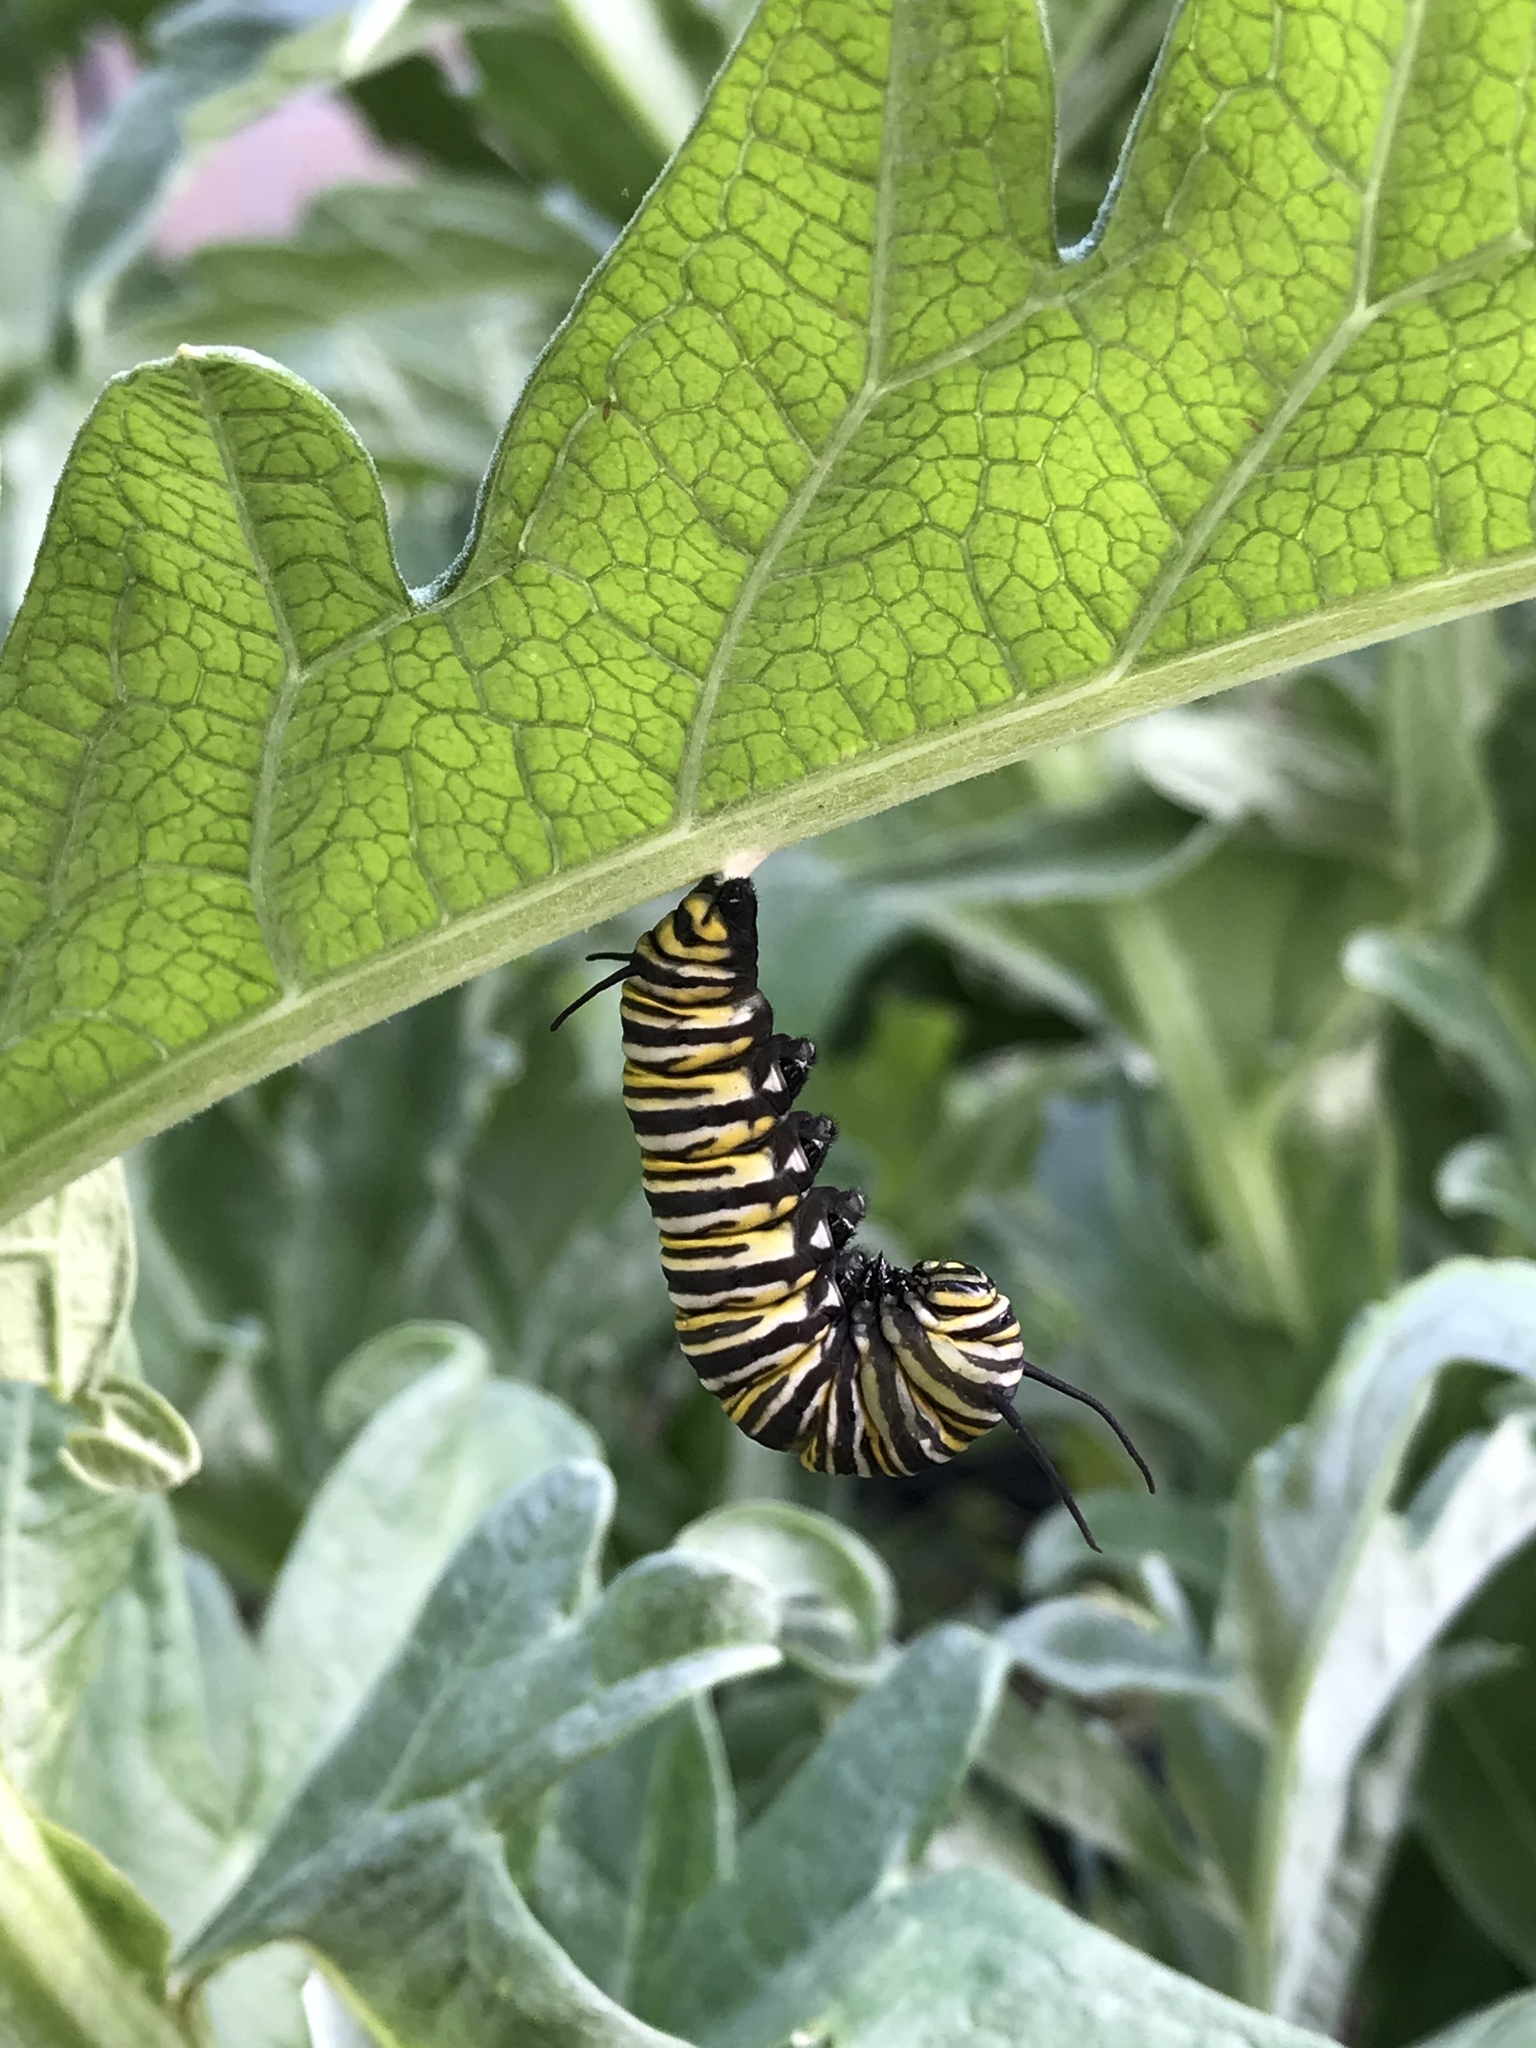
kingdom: Animalia
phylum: Arthropoda
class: Insecta
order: Lepidoptera
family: Nymphalidae
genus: Danaus
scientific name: Danaus plexippus
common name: Monarch
